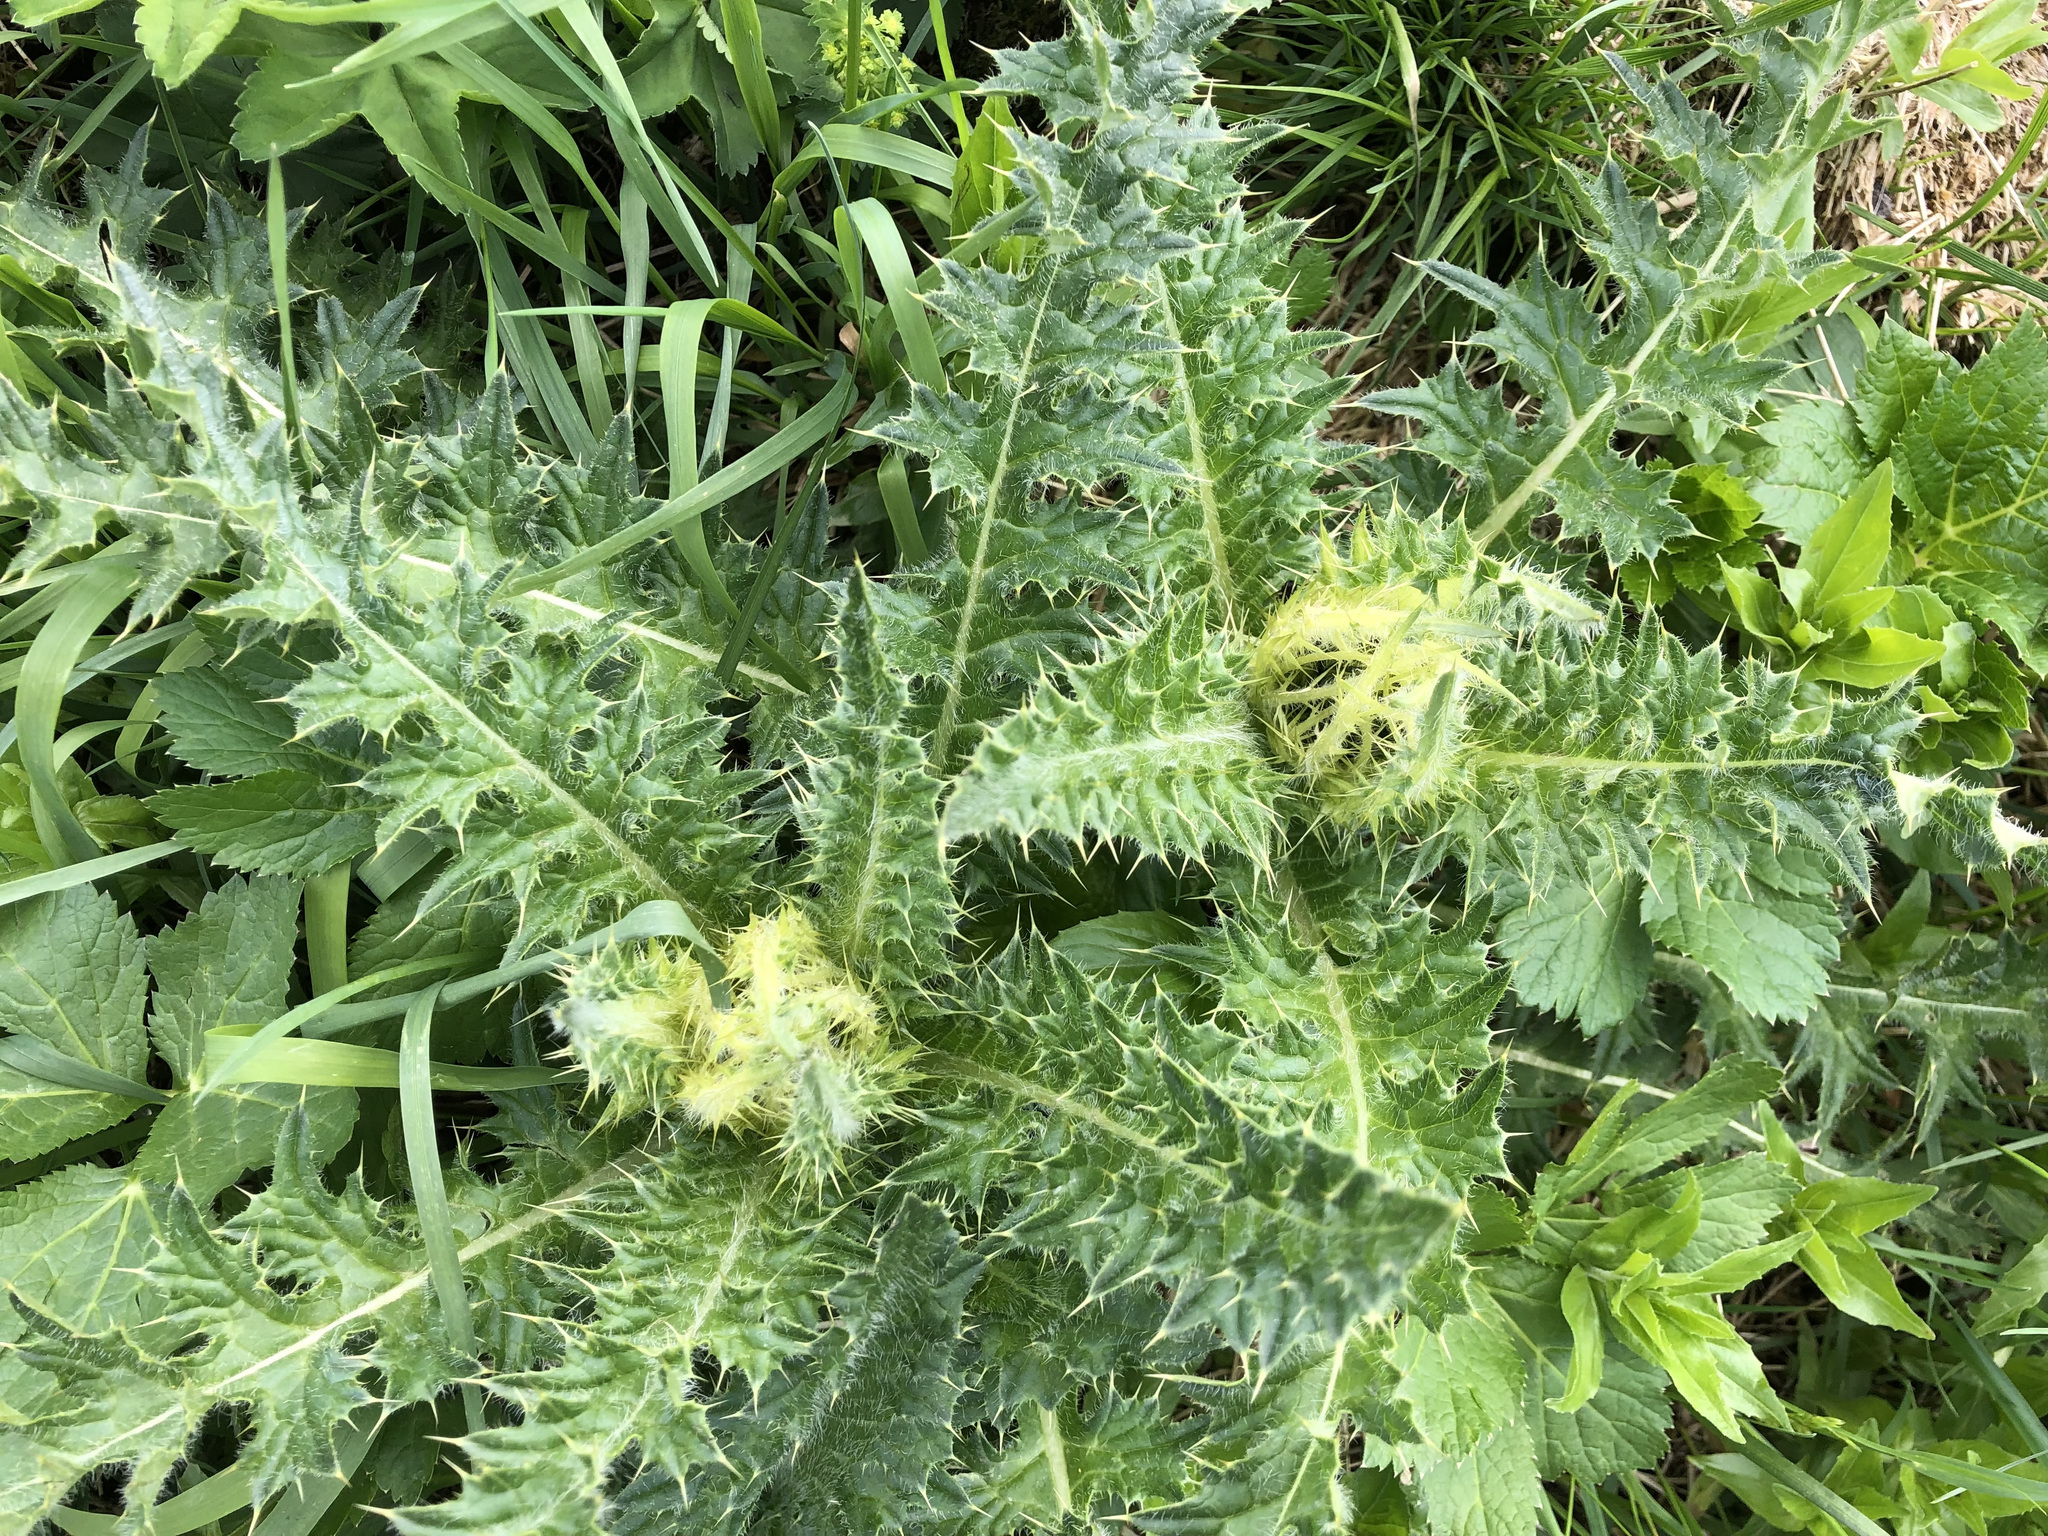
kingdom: Plantae
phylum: Tracheophyta
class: Magnoliopsida
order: Asterales
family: Asteraceae
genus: Cirsium
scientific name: Cirsium spinosissimum
